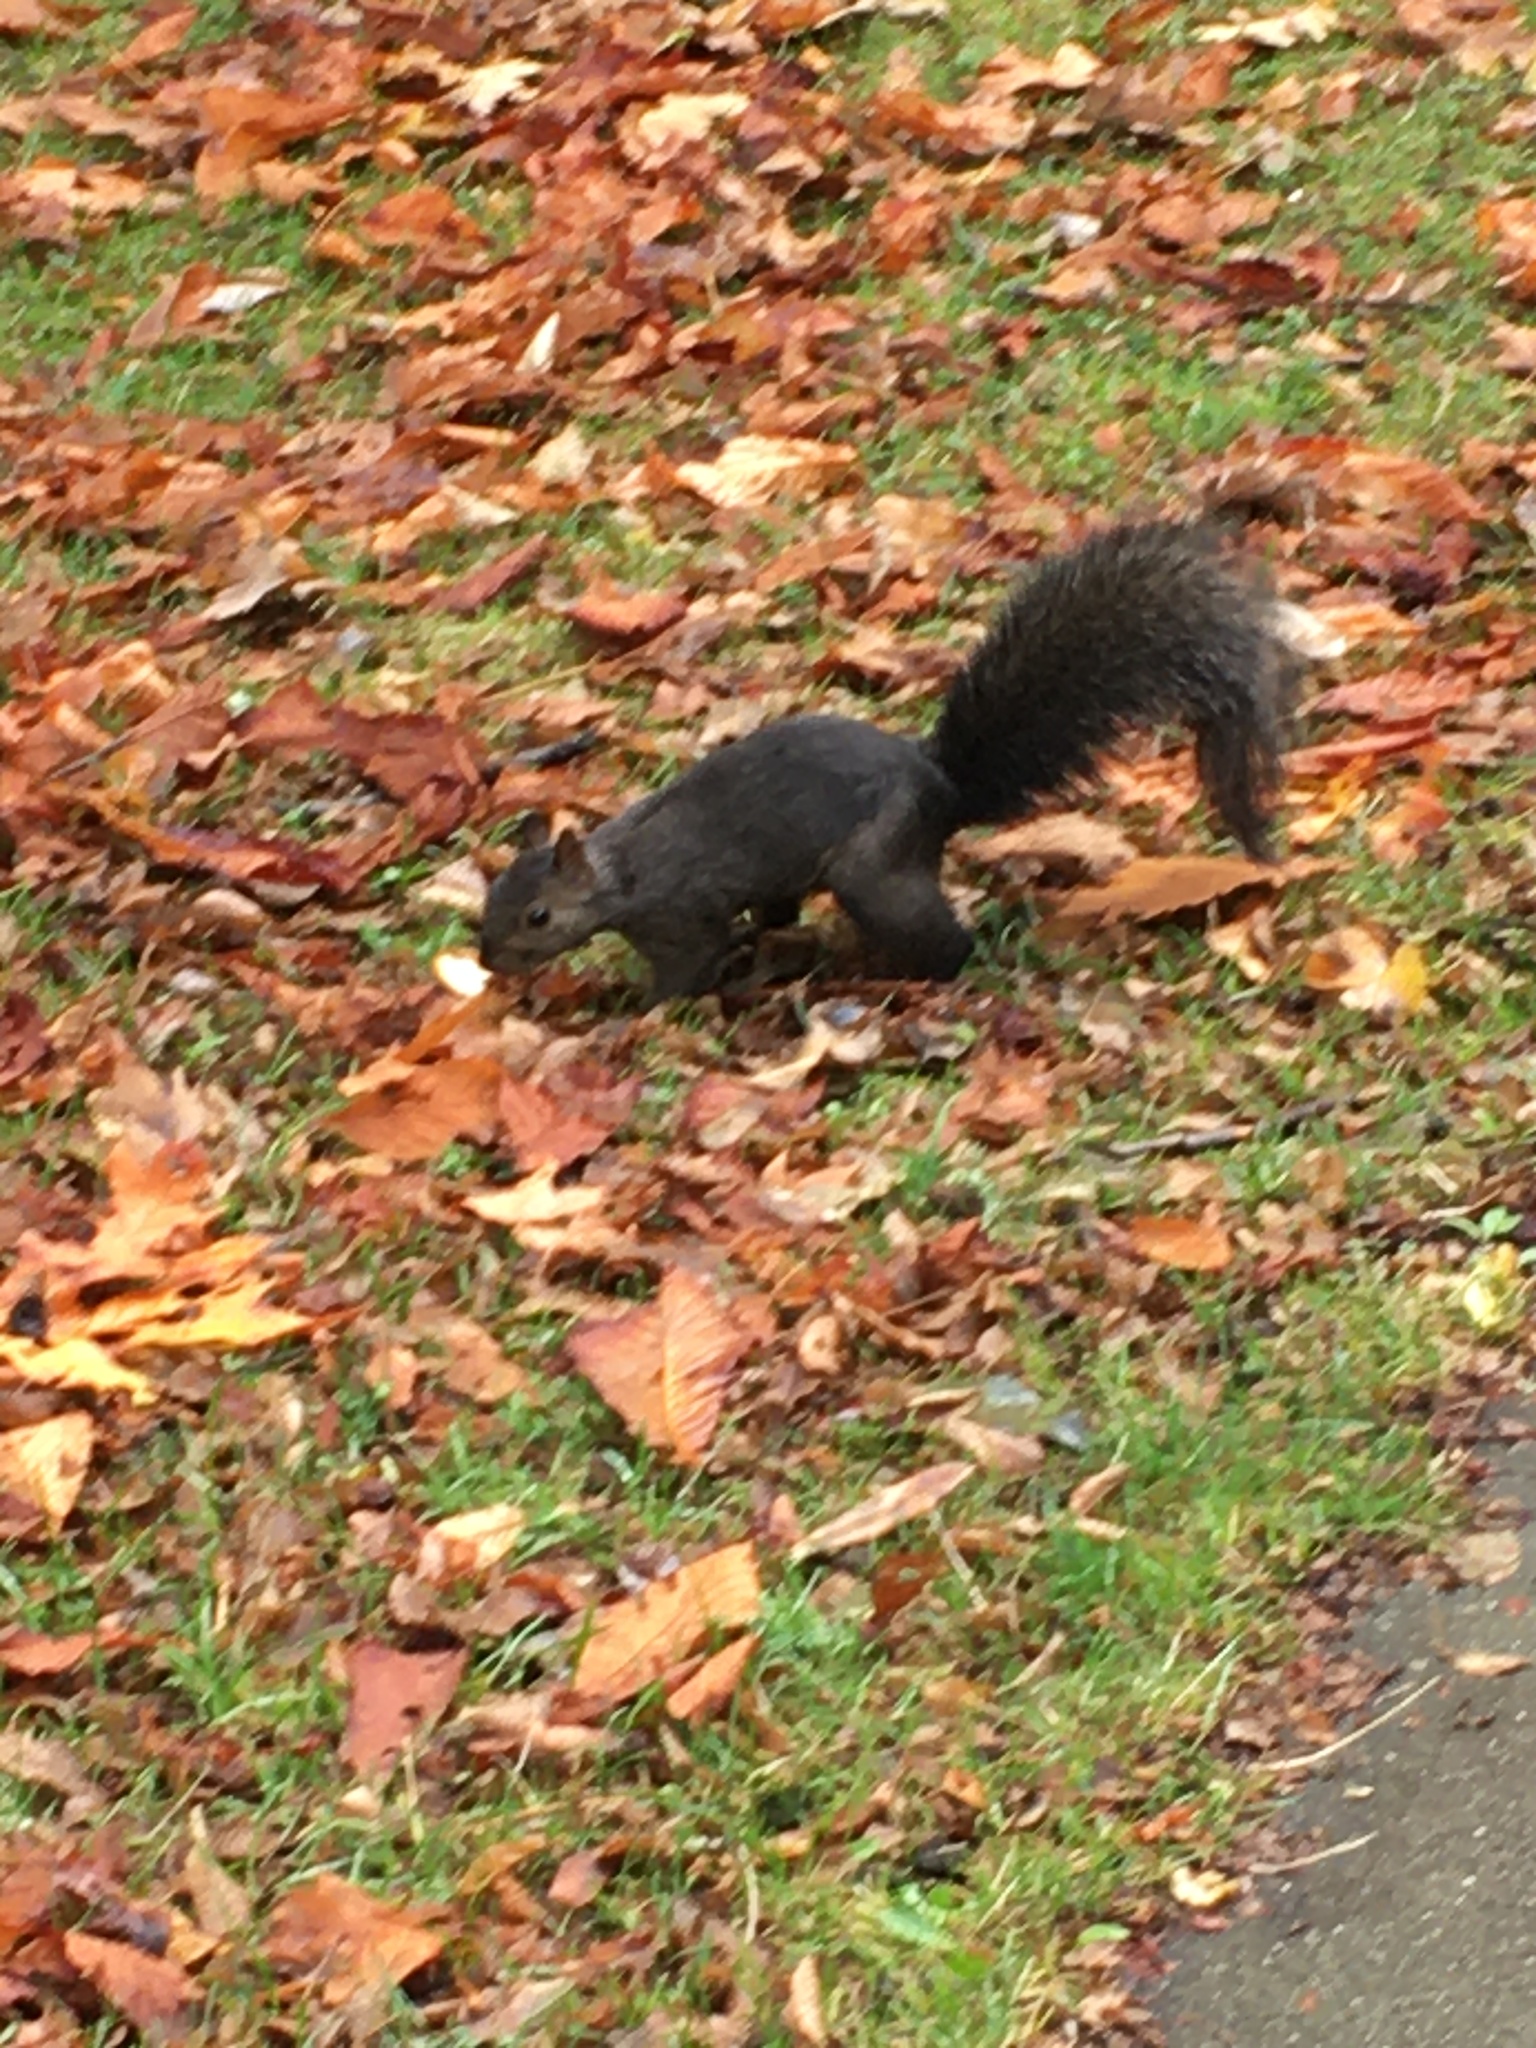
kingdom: Animalia
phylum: Chordata
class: Mammalia
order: Rodentia
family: Sciuridae
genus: Sciurus
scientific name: Sciurus carolinensis
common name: Eastern gray squirrel
